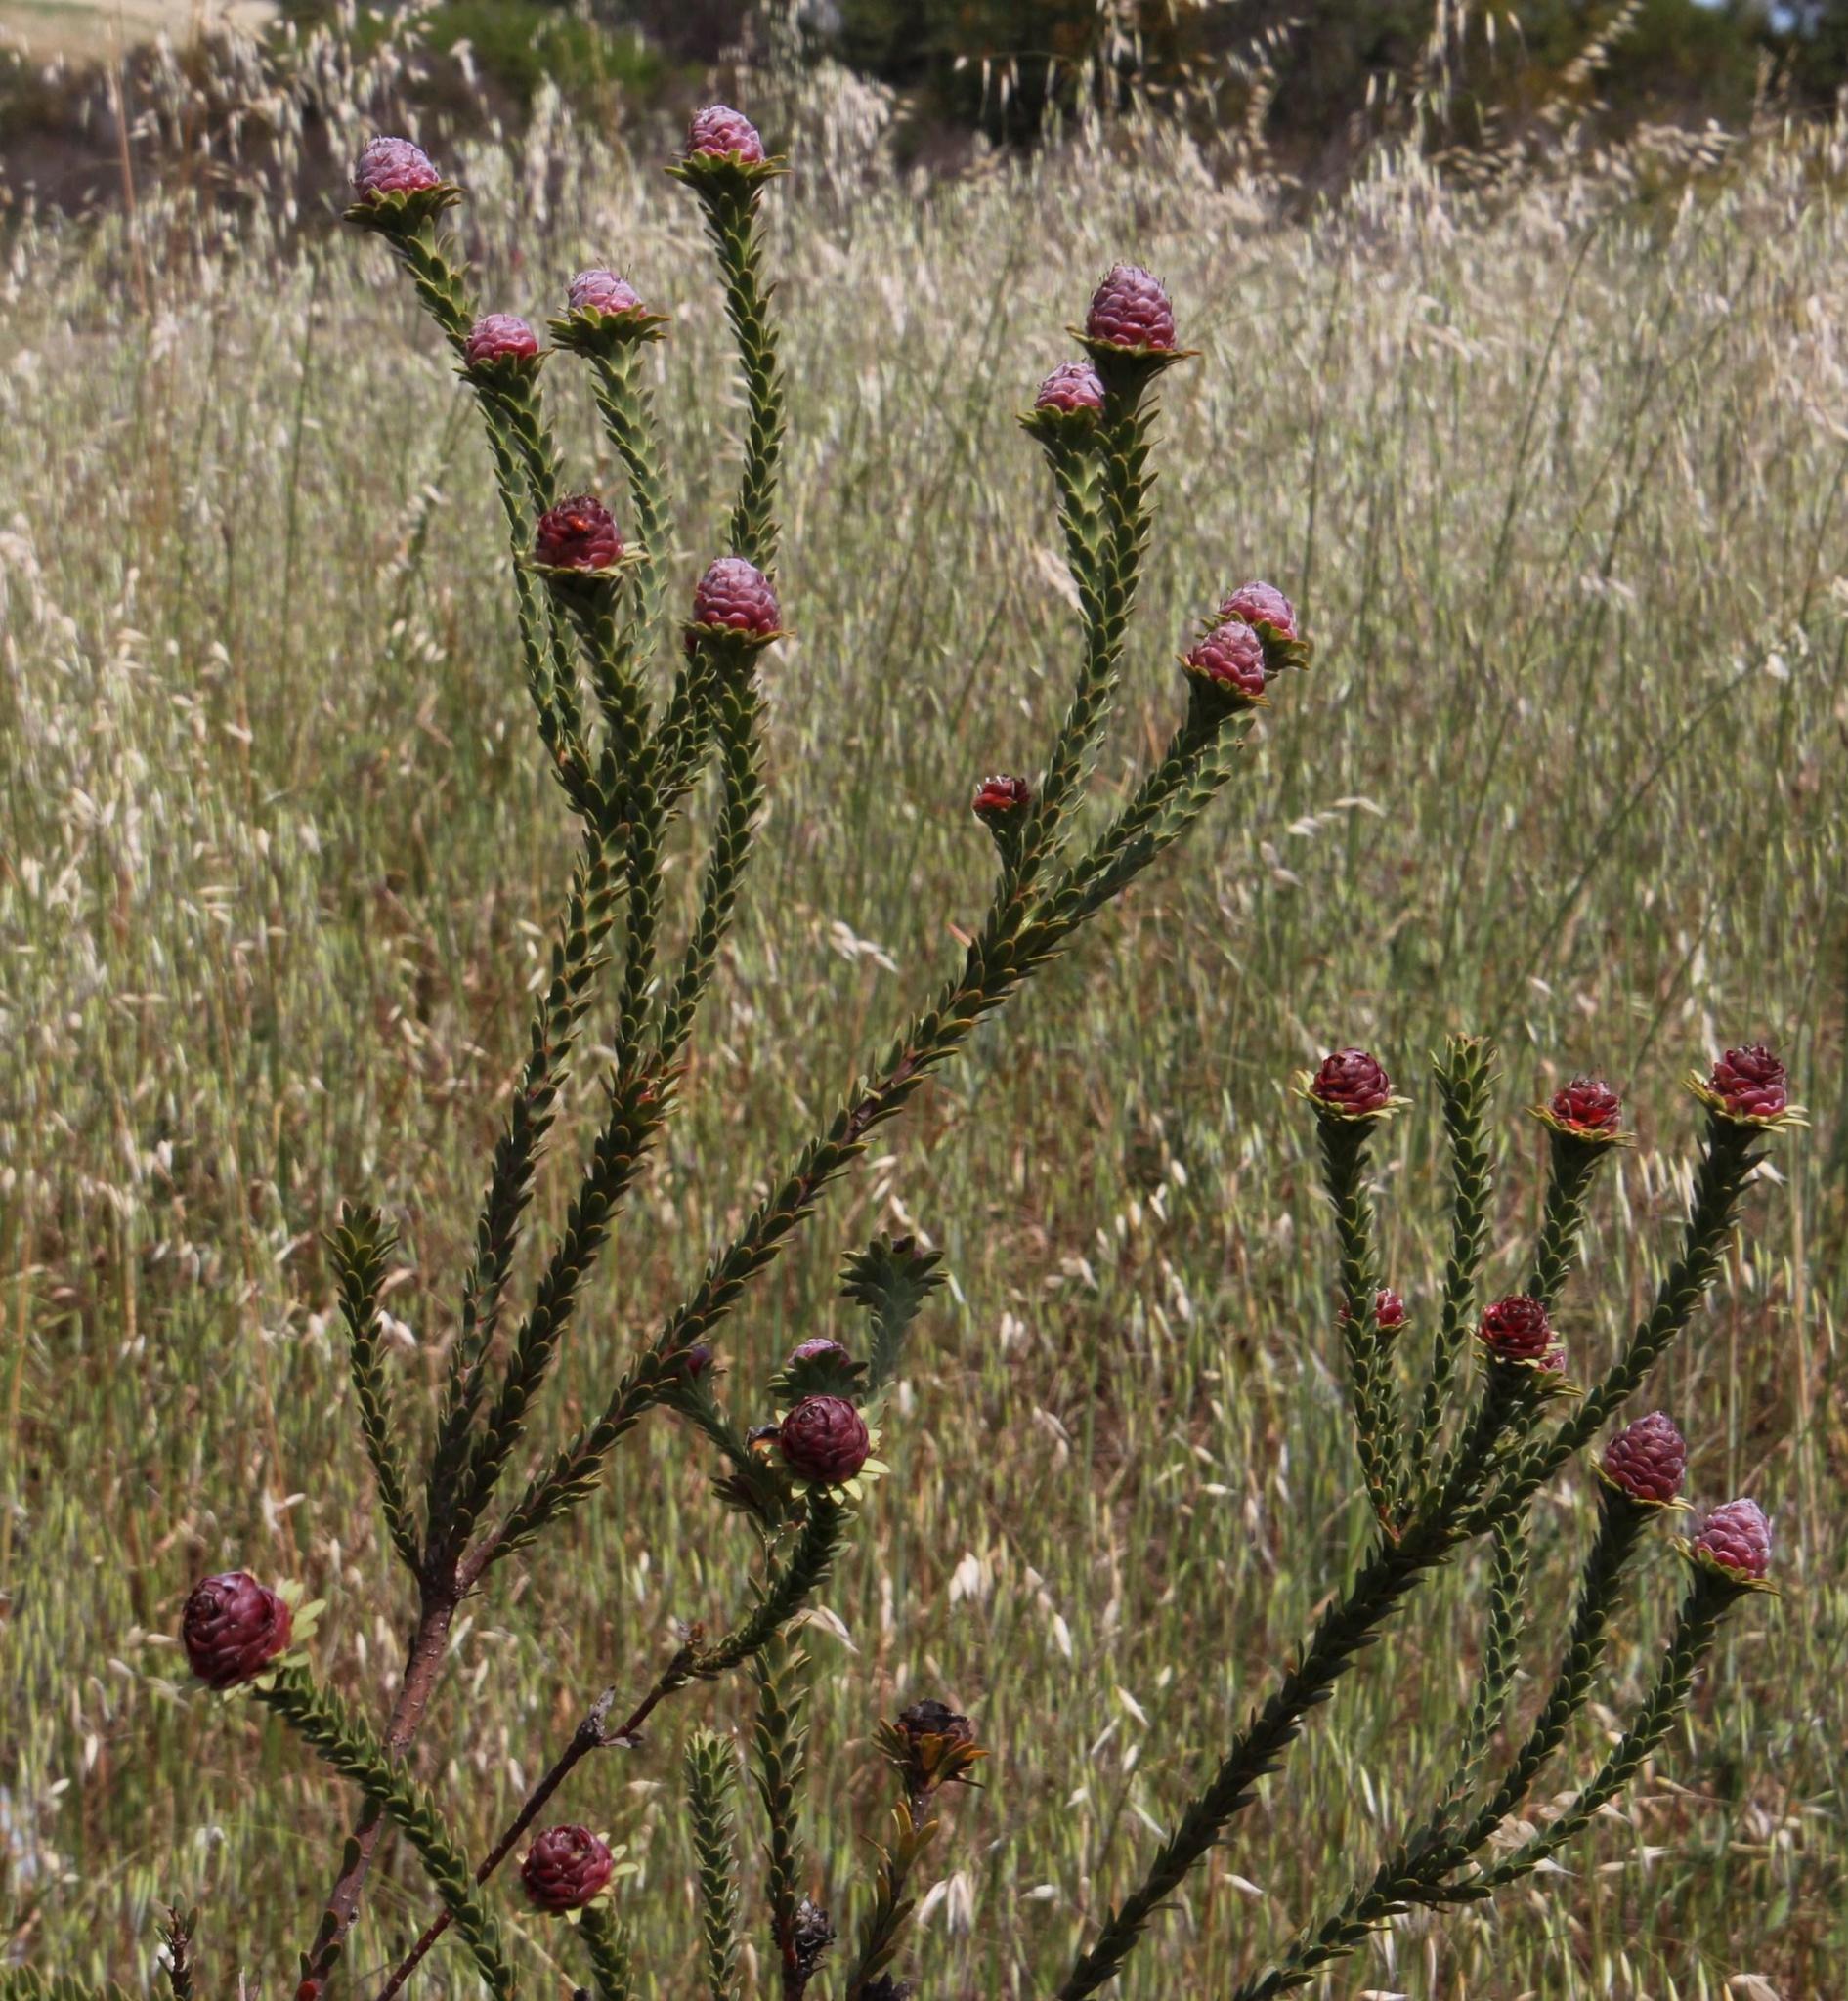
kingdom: Plantae
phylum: Tracheophyta
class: Magnoliopsida
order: Proteales
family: Proteaceae
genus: Leucadendron
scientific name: Leucadendron thymifolium
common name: Malmesbury conebush
